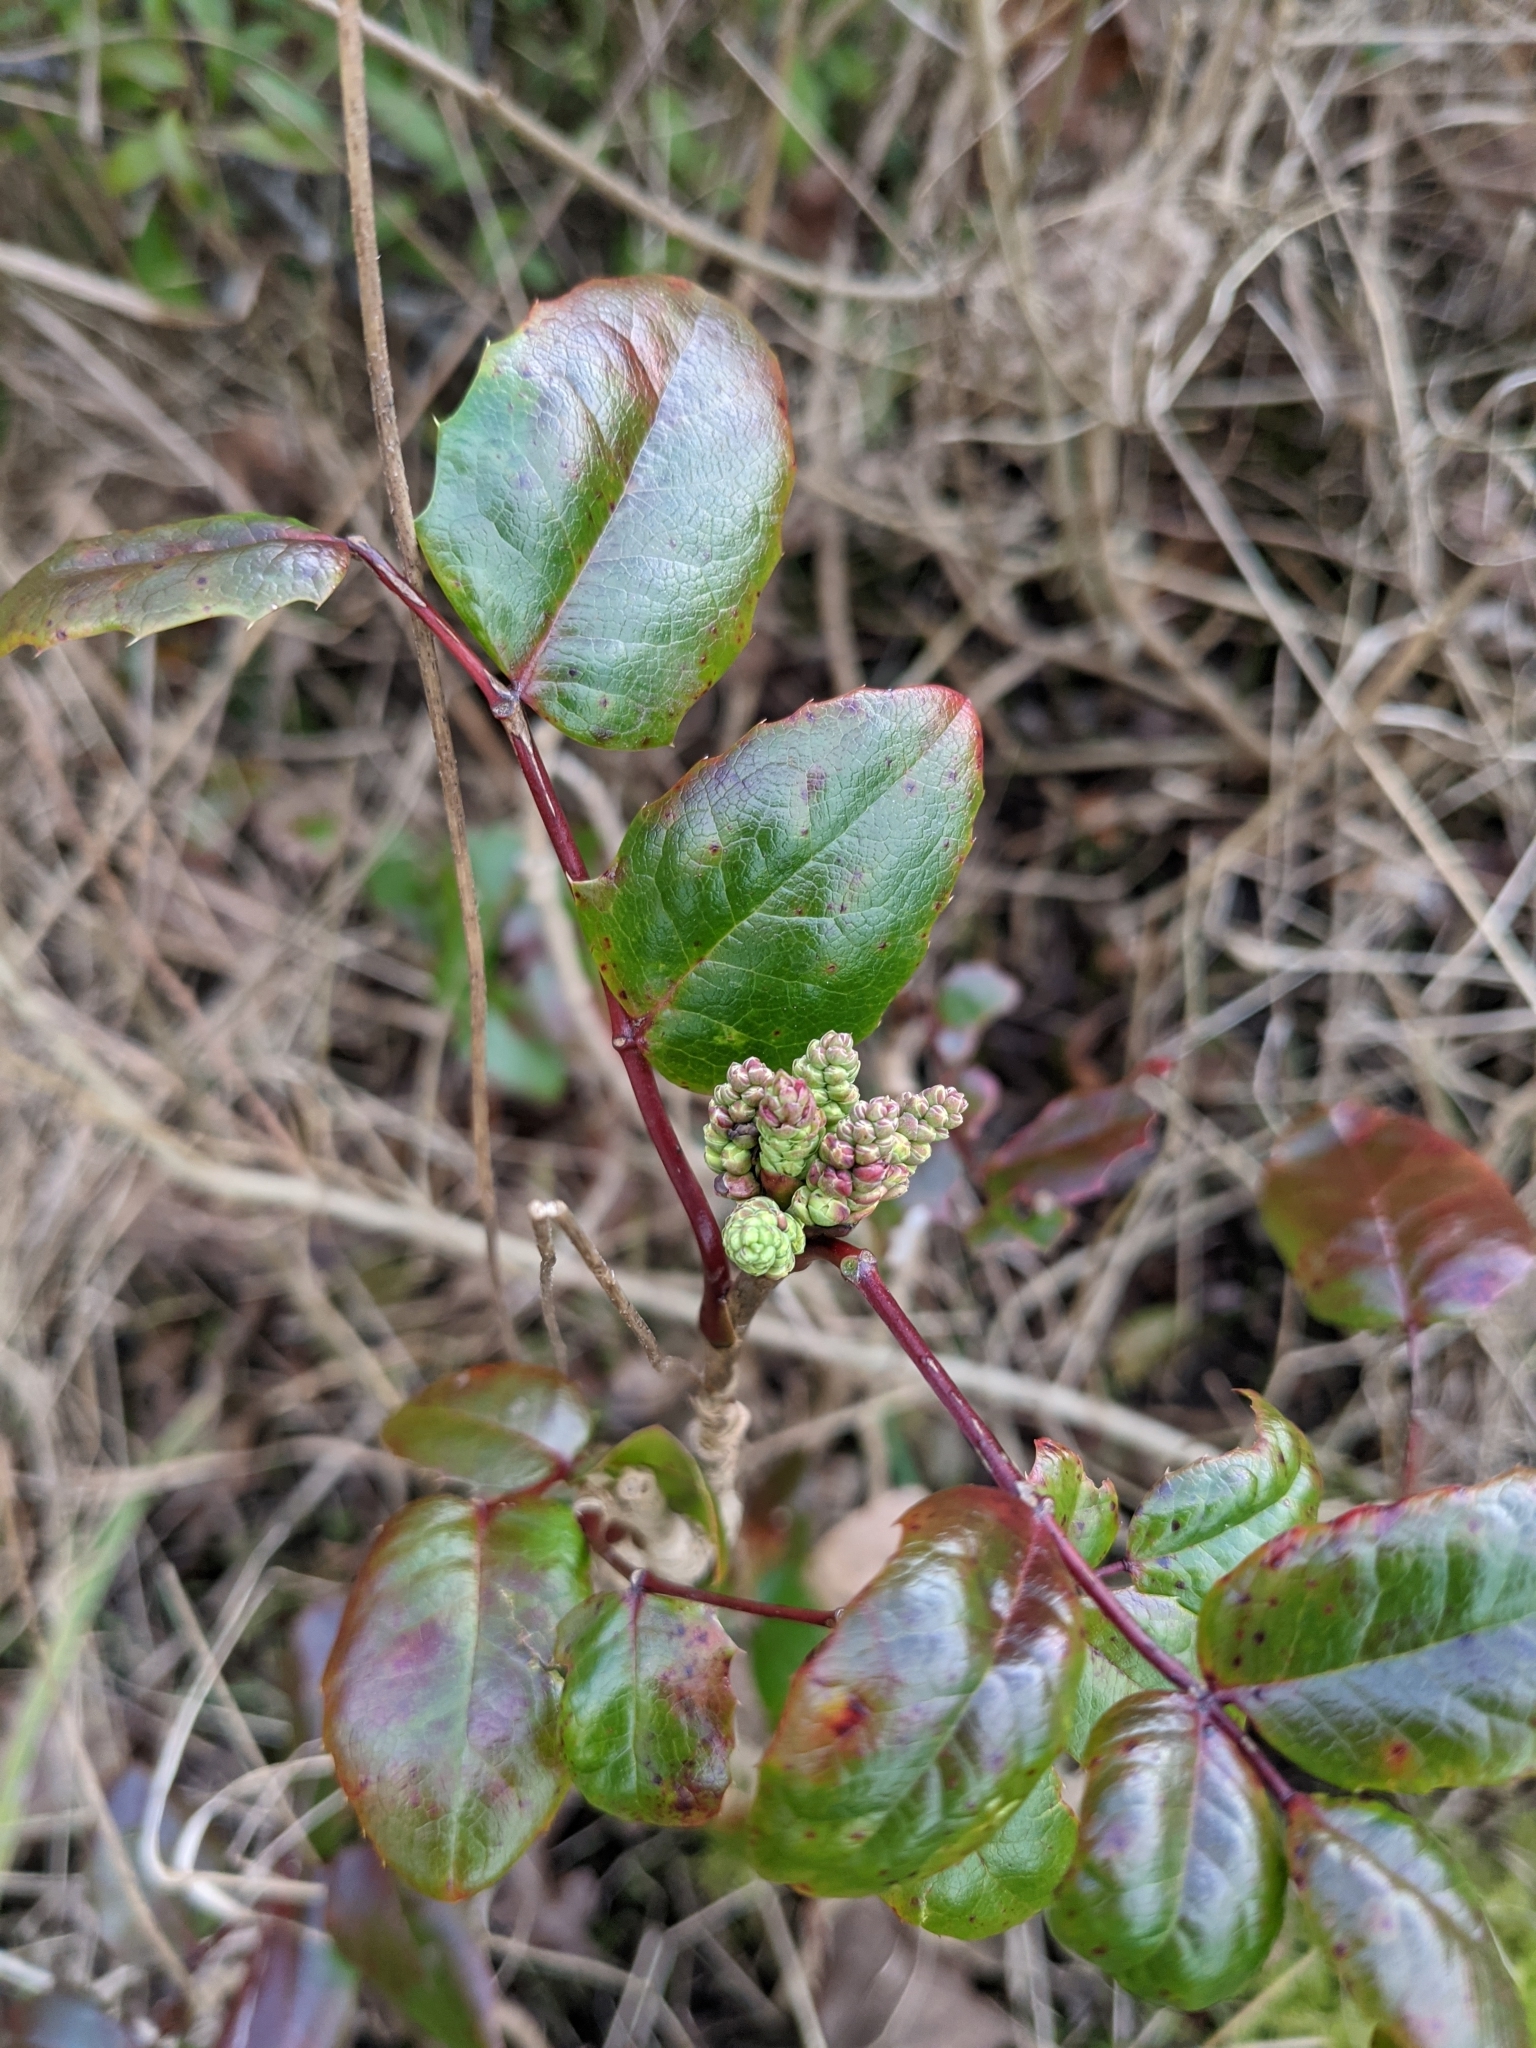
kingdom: Plantae
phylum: Tracheophyta
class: Magnoliopsida
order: Ranunculales
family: Berberidaceae
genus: Mahonia
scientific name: Mahonia aquifolium
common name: Oregon-grape
